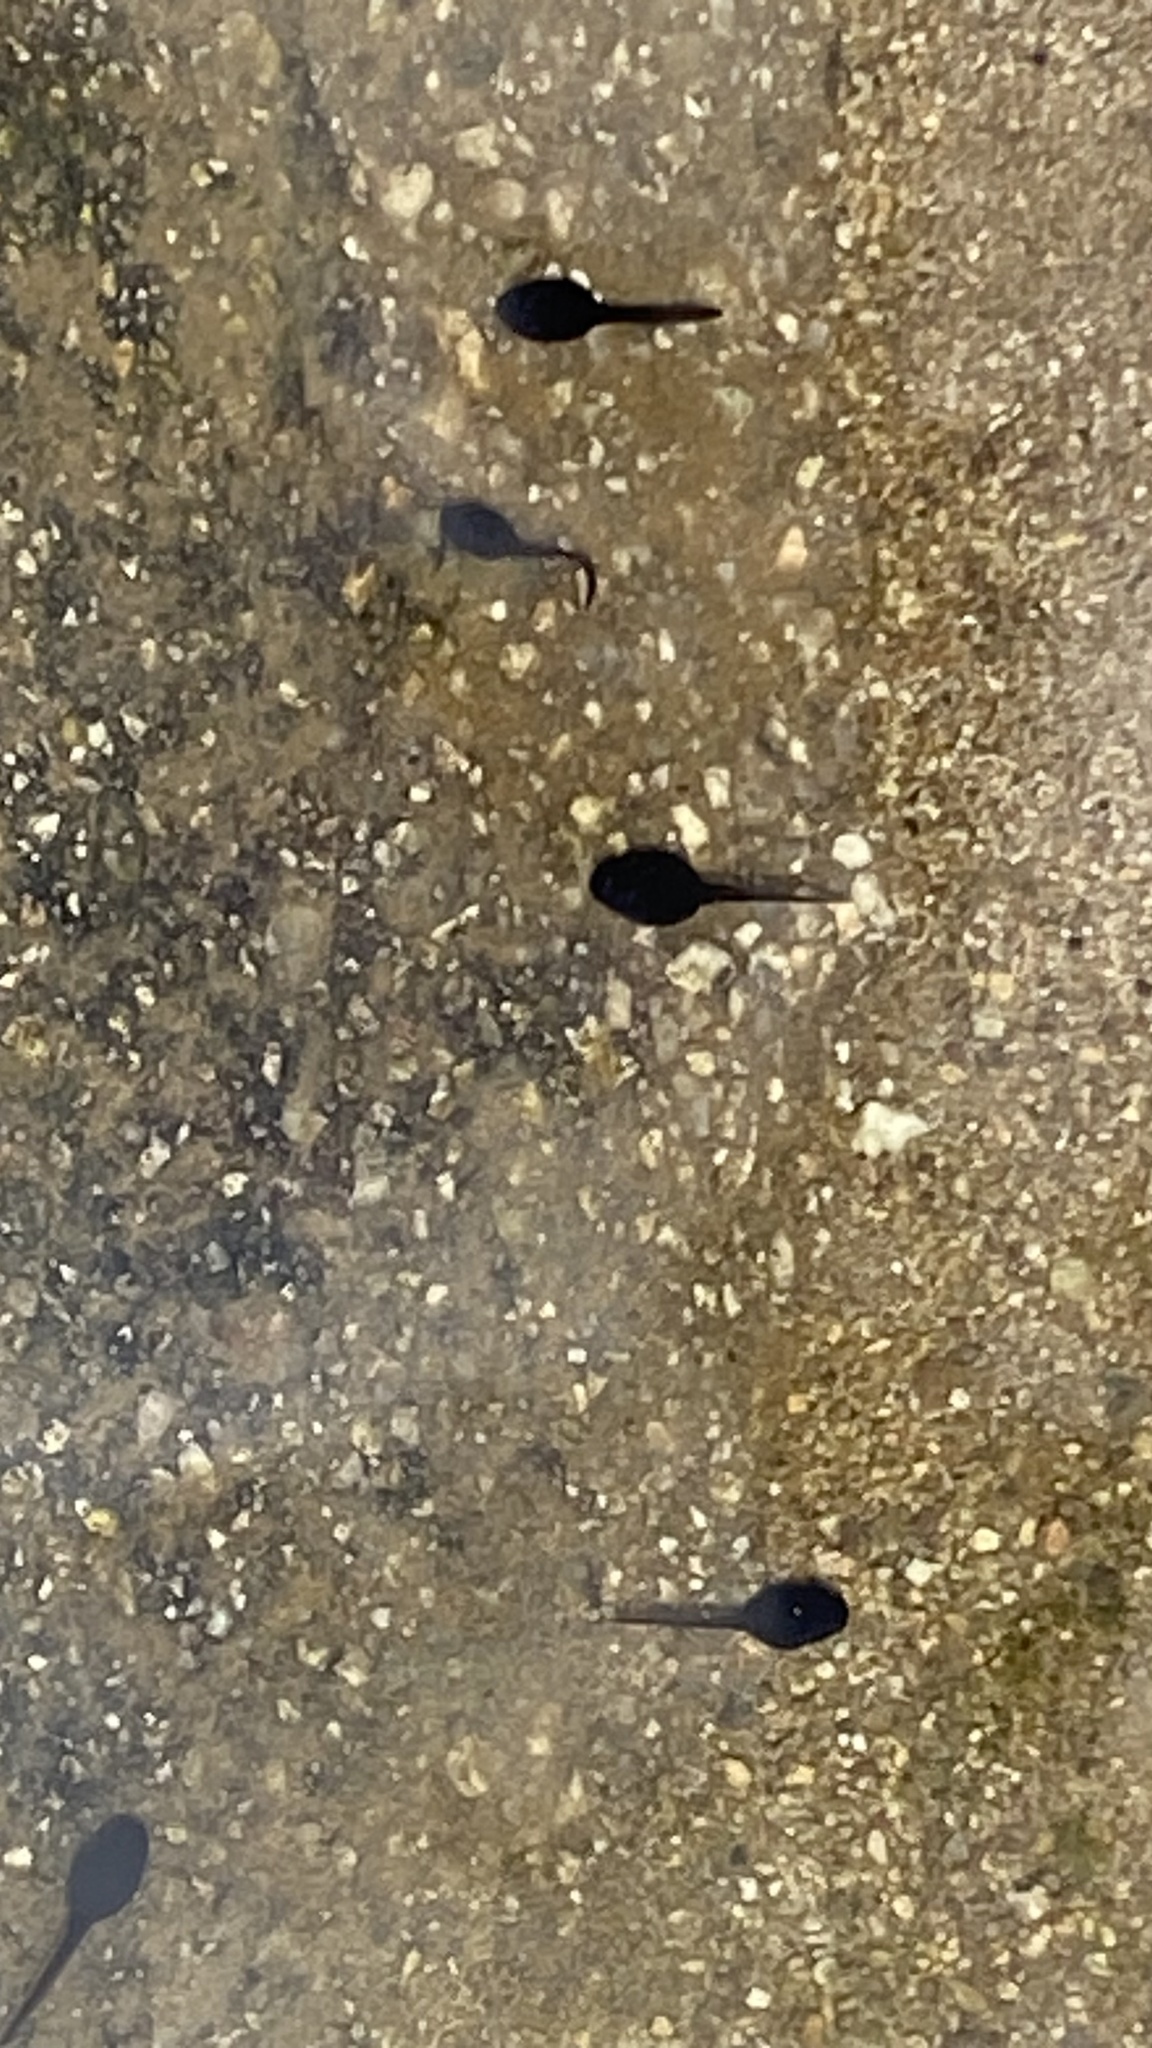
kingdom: Animalia
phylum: Chordata
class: Amphibia
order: Anura
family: Bufonidae
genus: Anaxyrus
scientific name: Anaxyrus boreas
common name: Western toad
